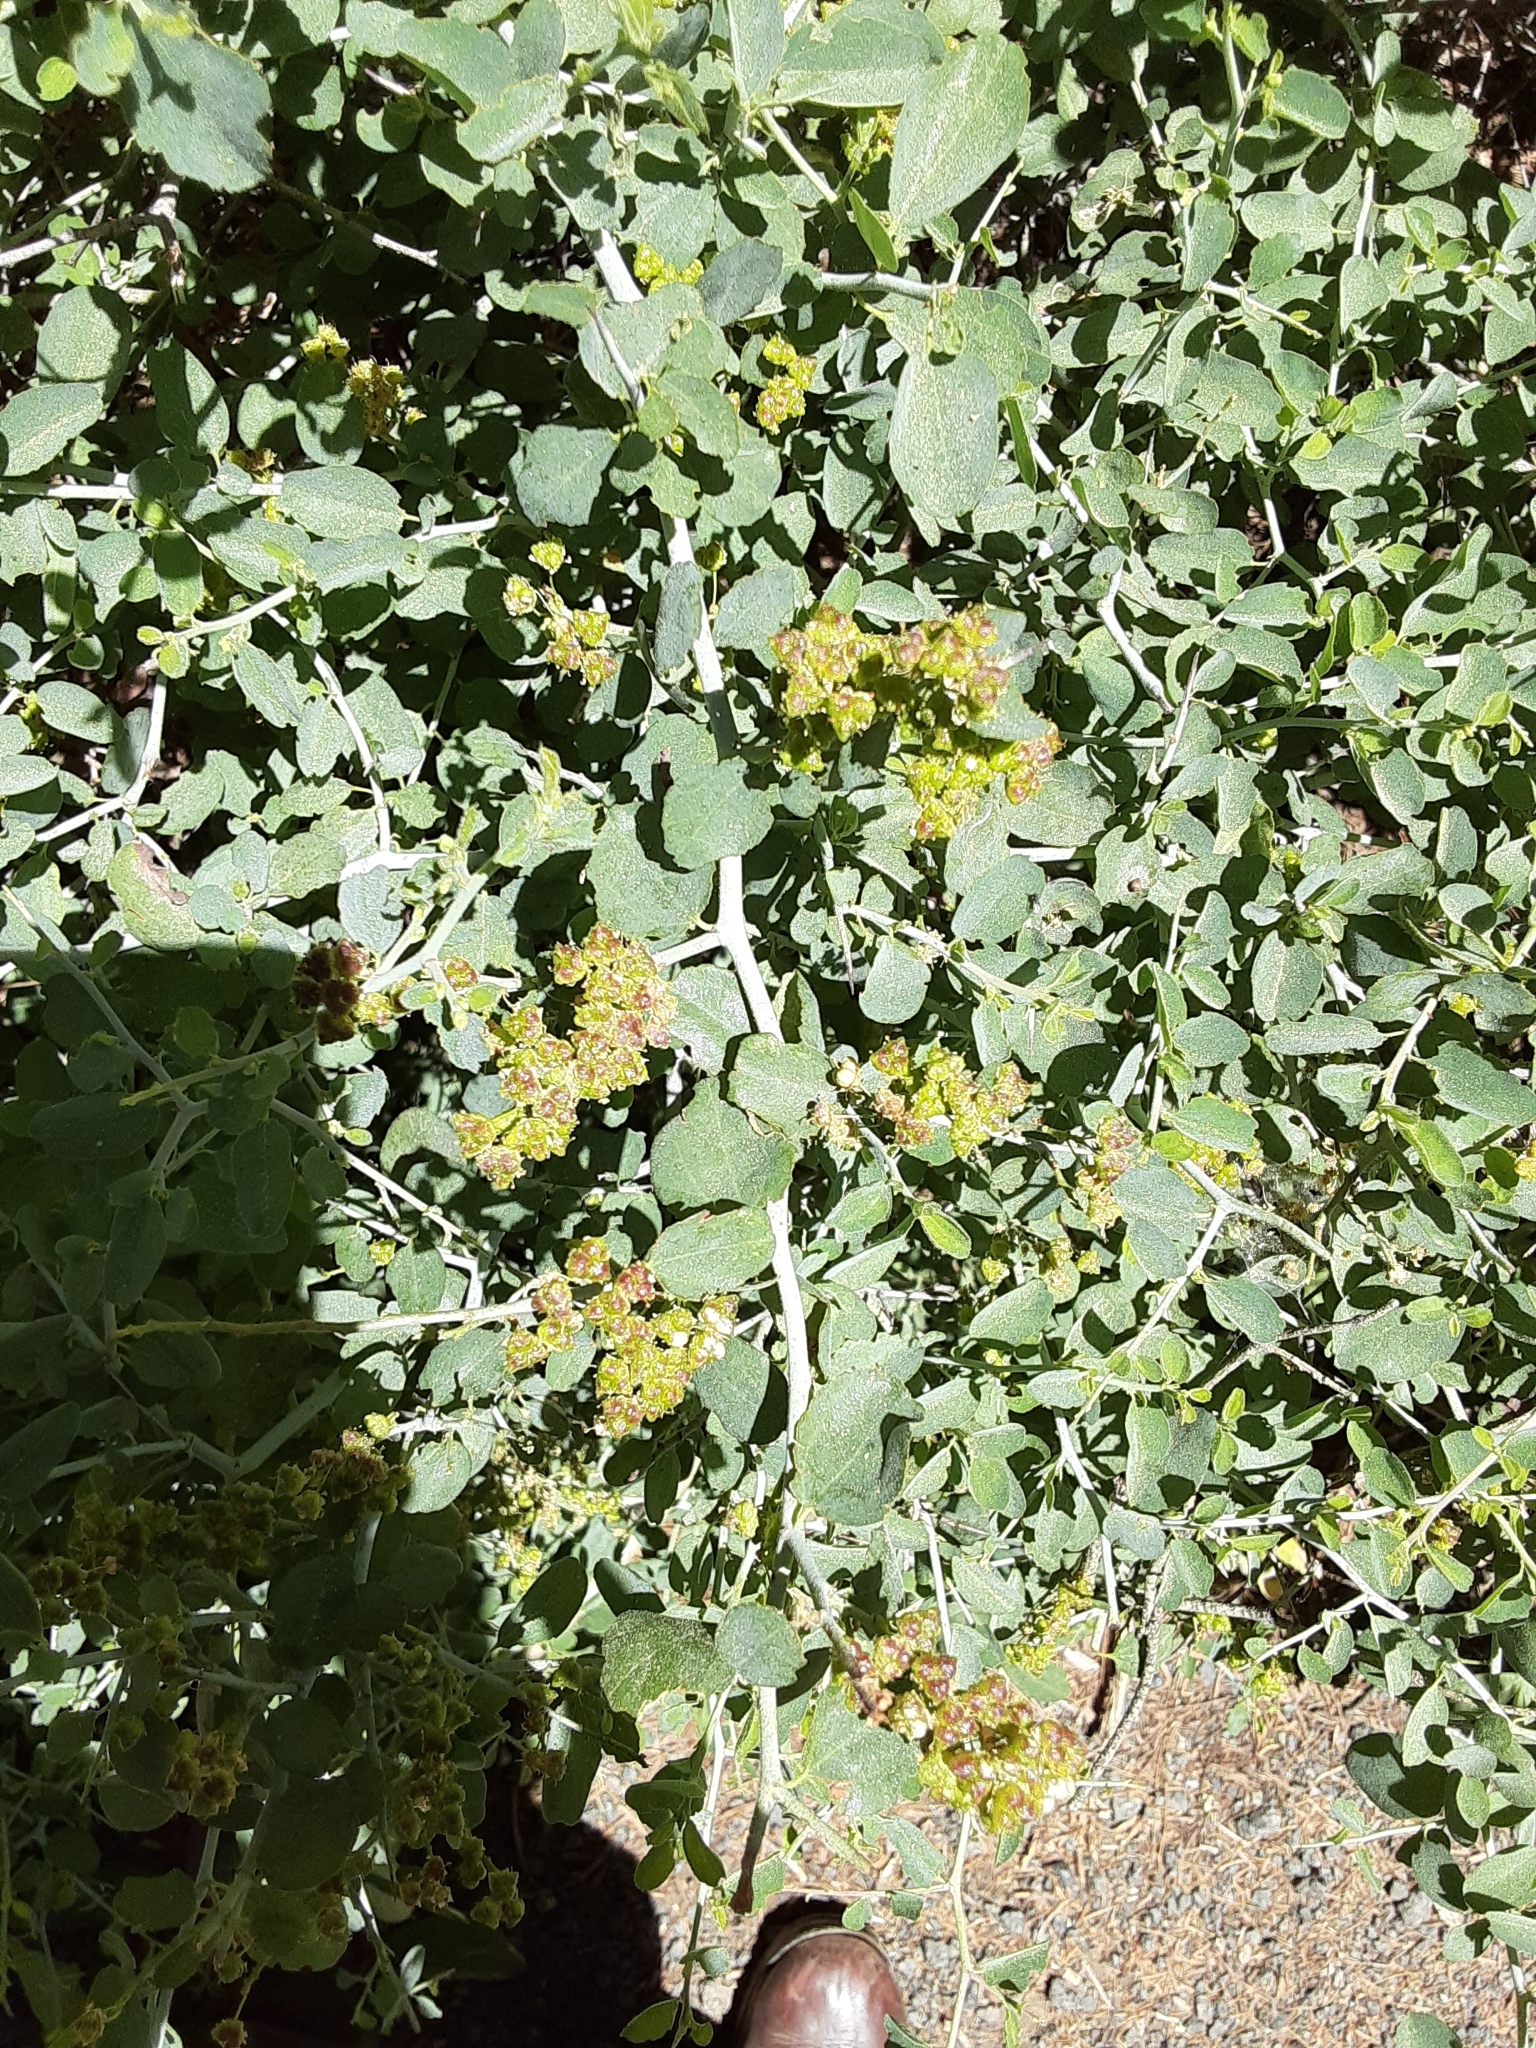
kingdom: Plantae
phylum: Tracheophyta
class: Magnoliopsida
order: Rosales
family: Rhamnaceae
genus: Ceanothus
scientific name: Ceanothus cordulatus
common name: Mountain whitethorn
